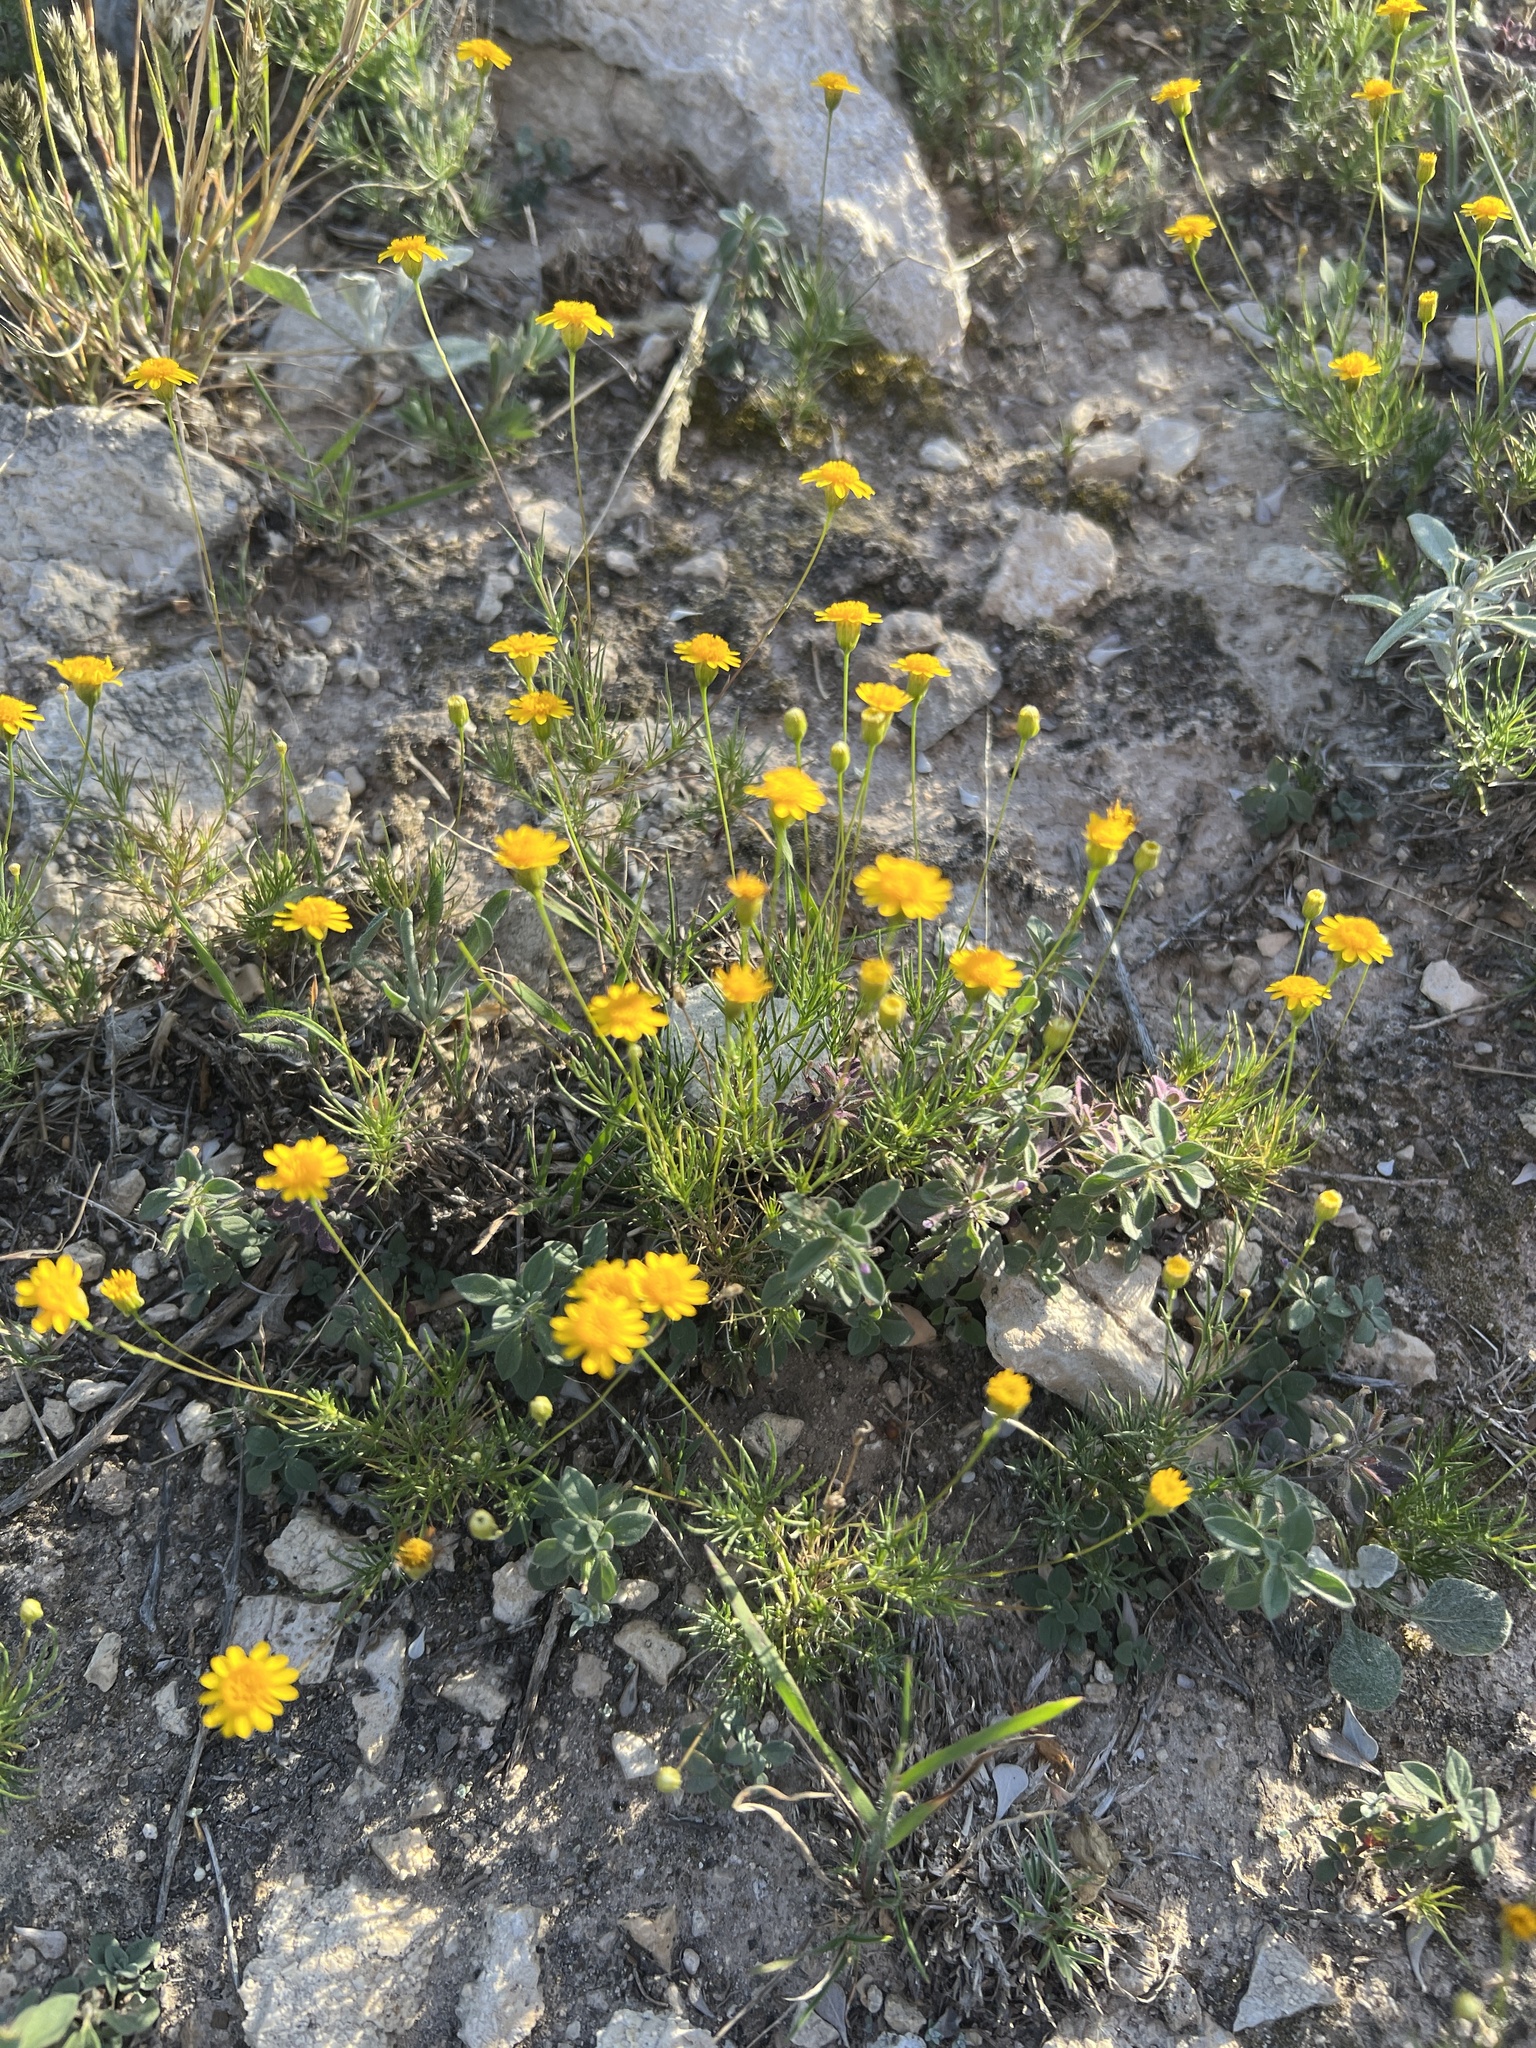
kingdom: Plantae
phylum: Tracheophyta
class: Magnoliopsida
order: Asterales
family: Asteraceae
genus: Thymophylla
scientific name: Thymophylla pentachaeta
